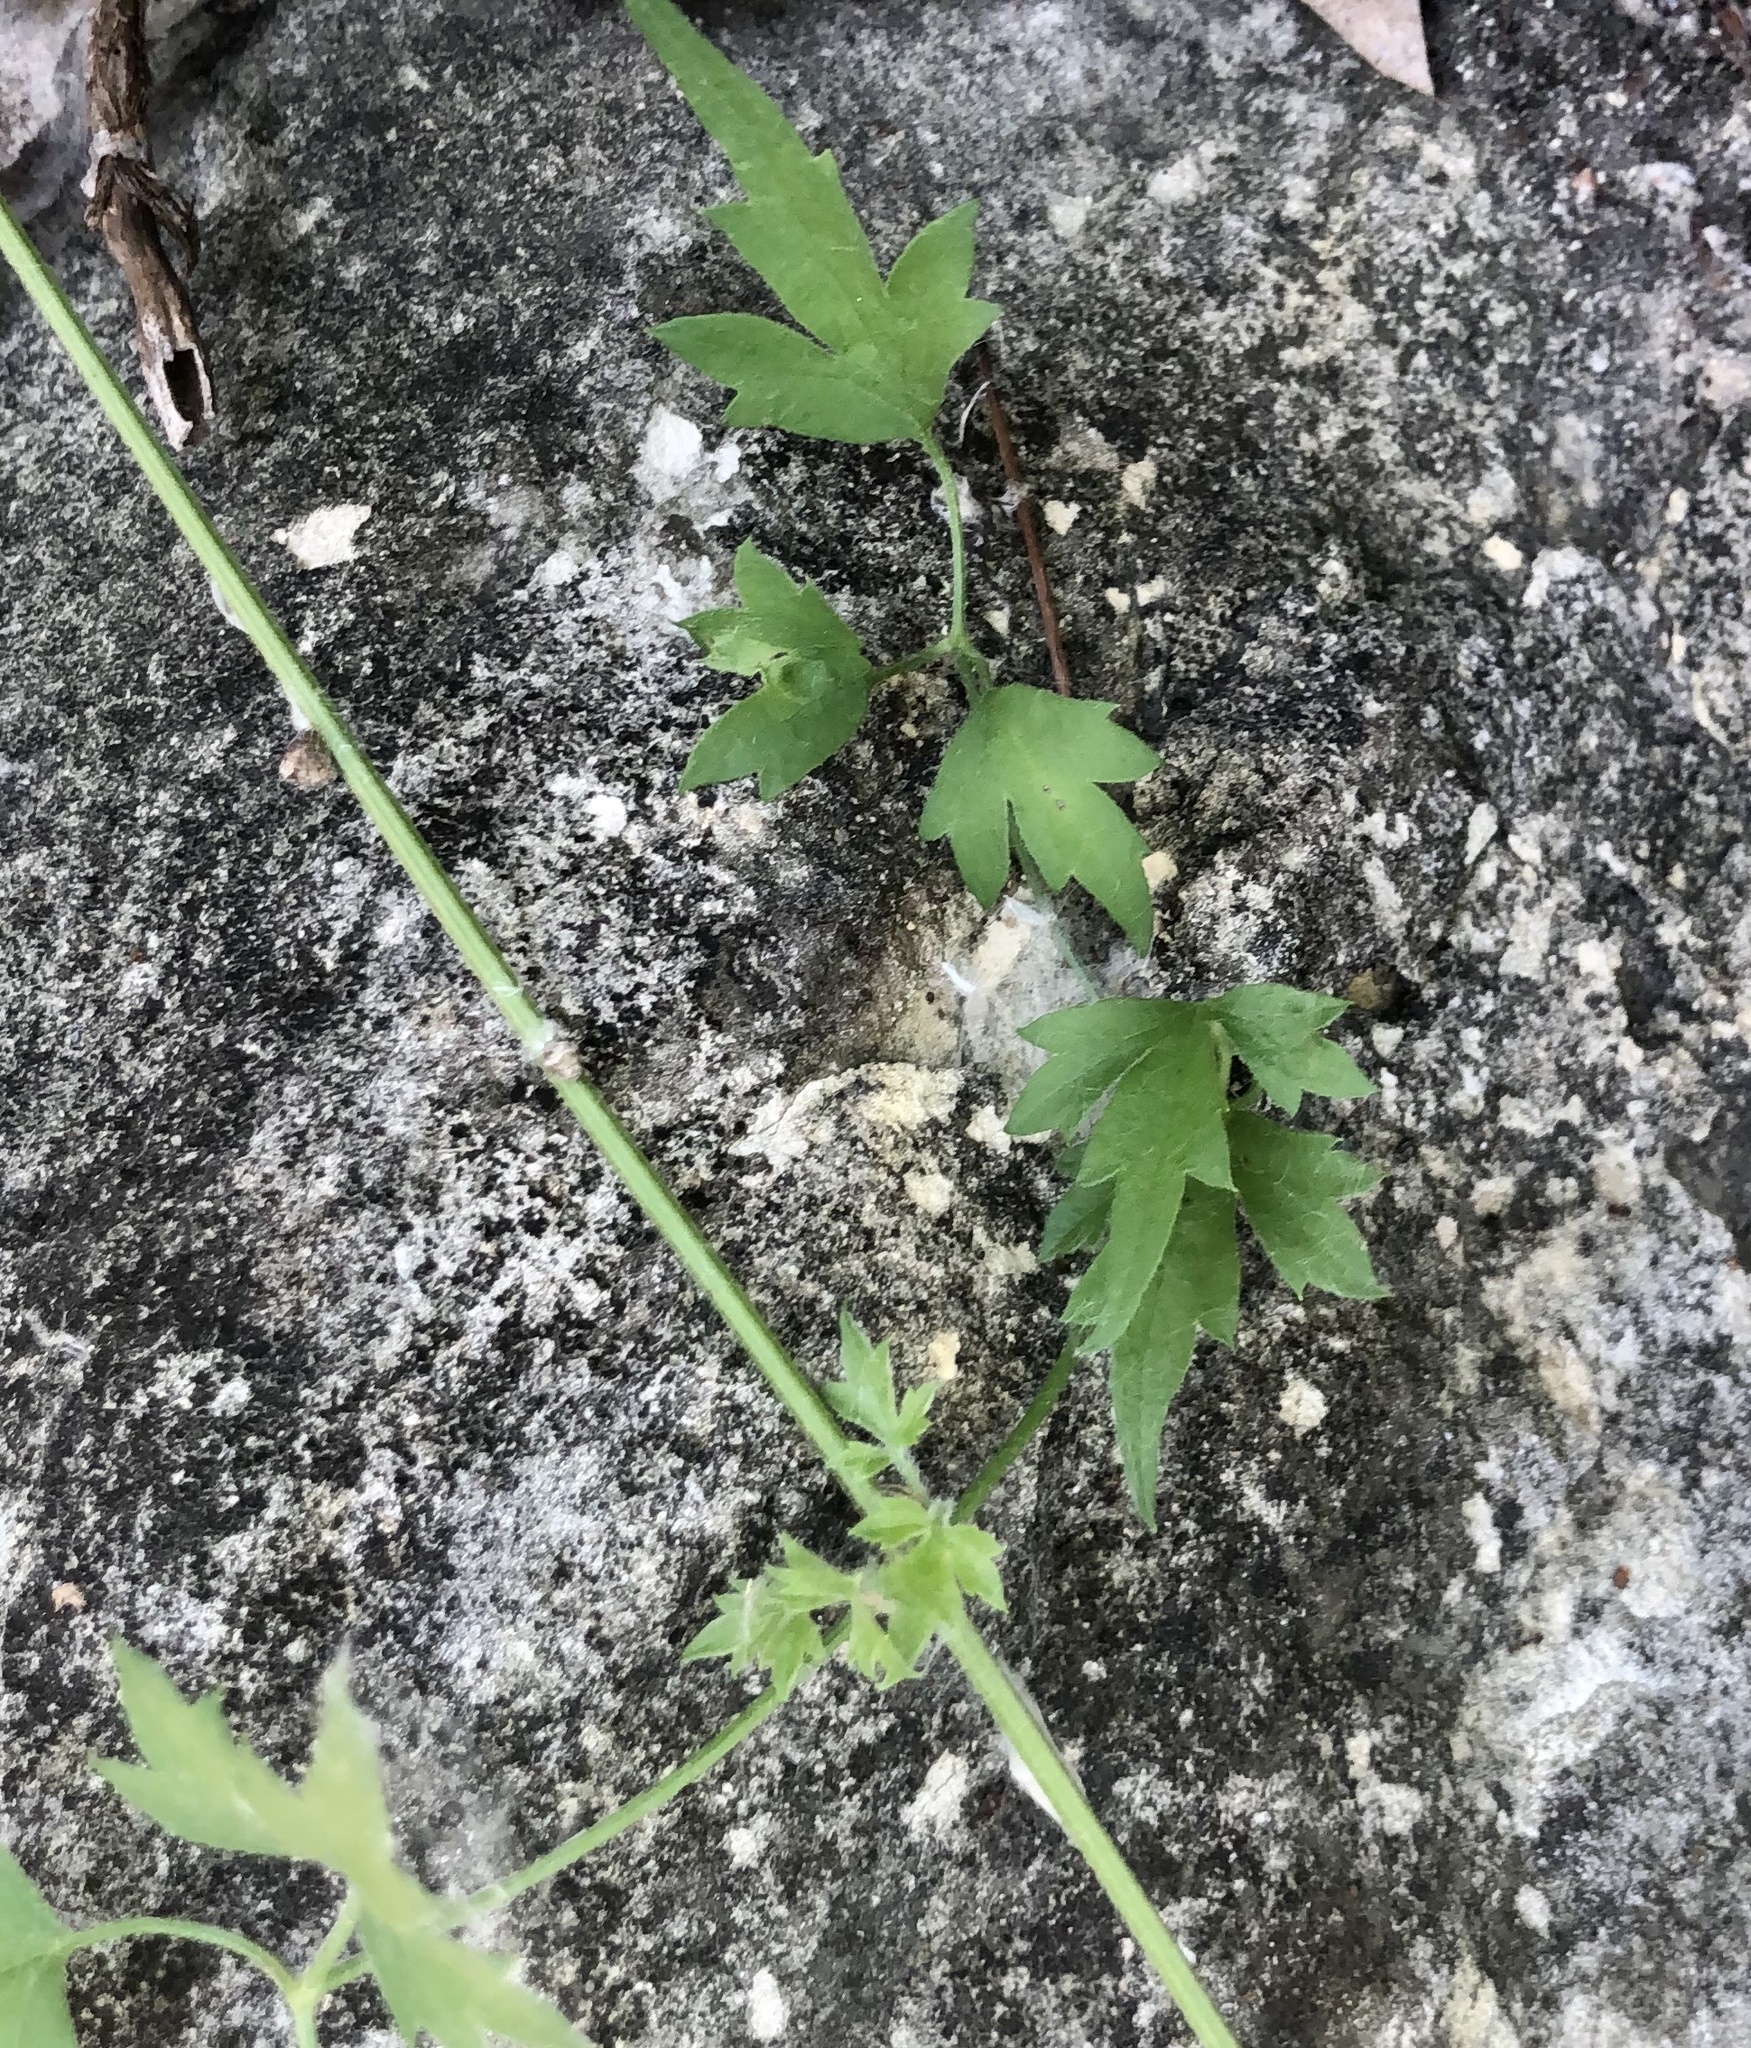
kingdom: Plantae
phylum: Tracheophyta
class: Magnoliopsida
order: Ranunculales
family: Ranunculaceae
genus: Clematis
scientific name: Clematis drummondii
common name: Texas virgin's bower
